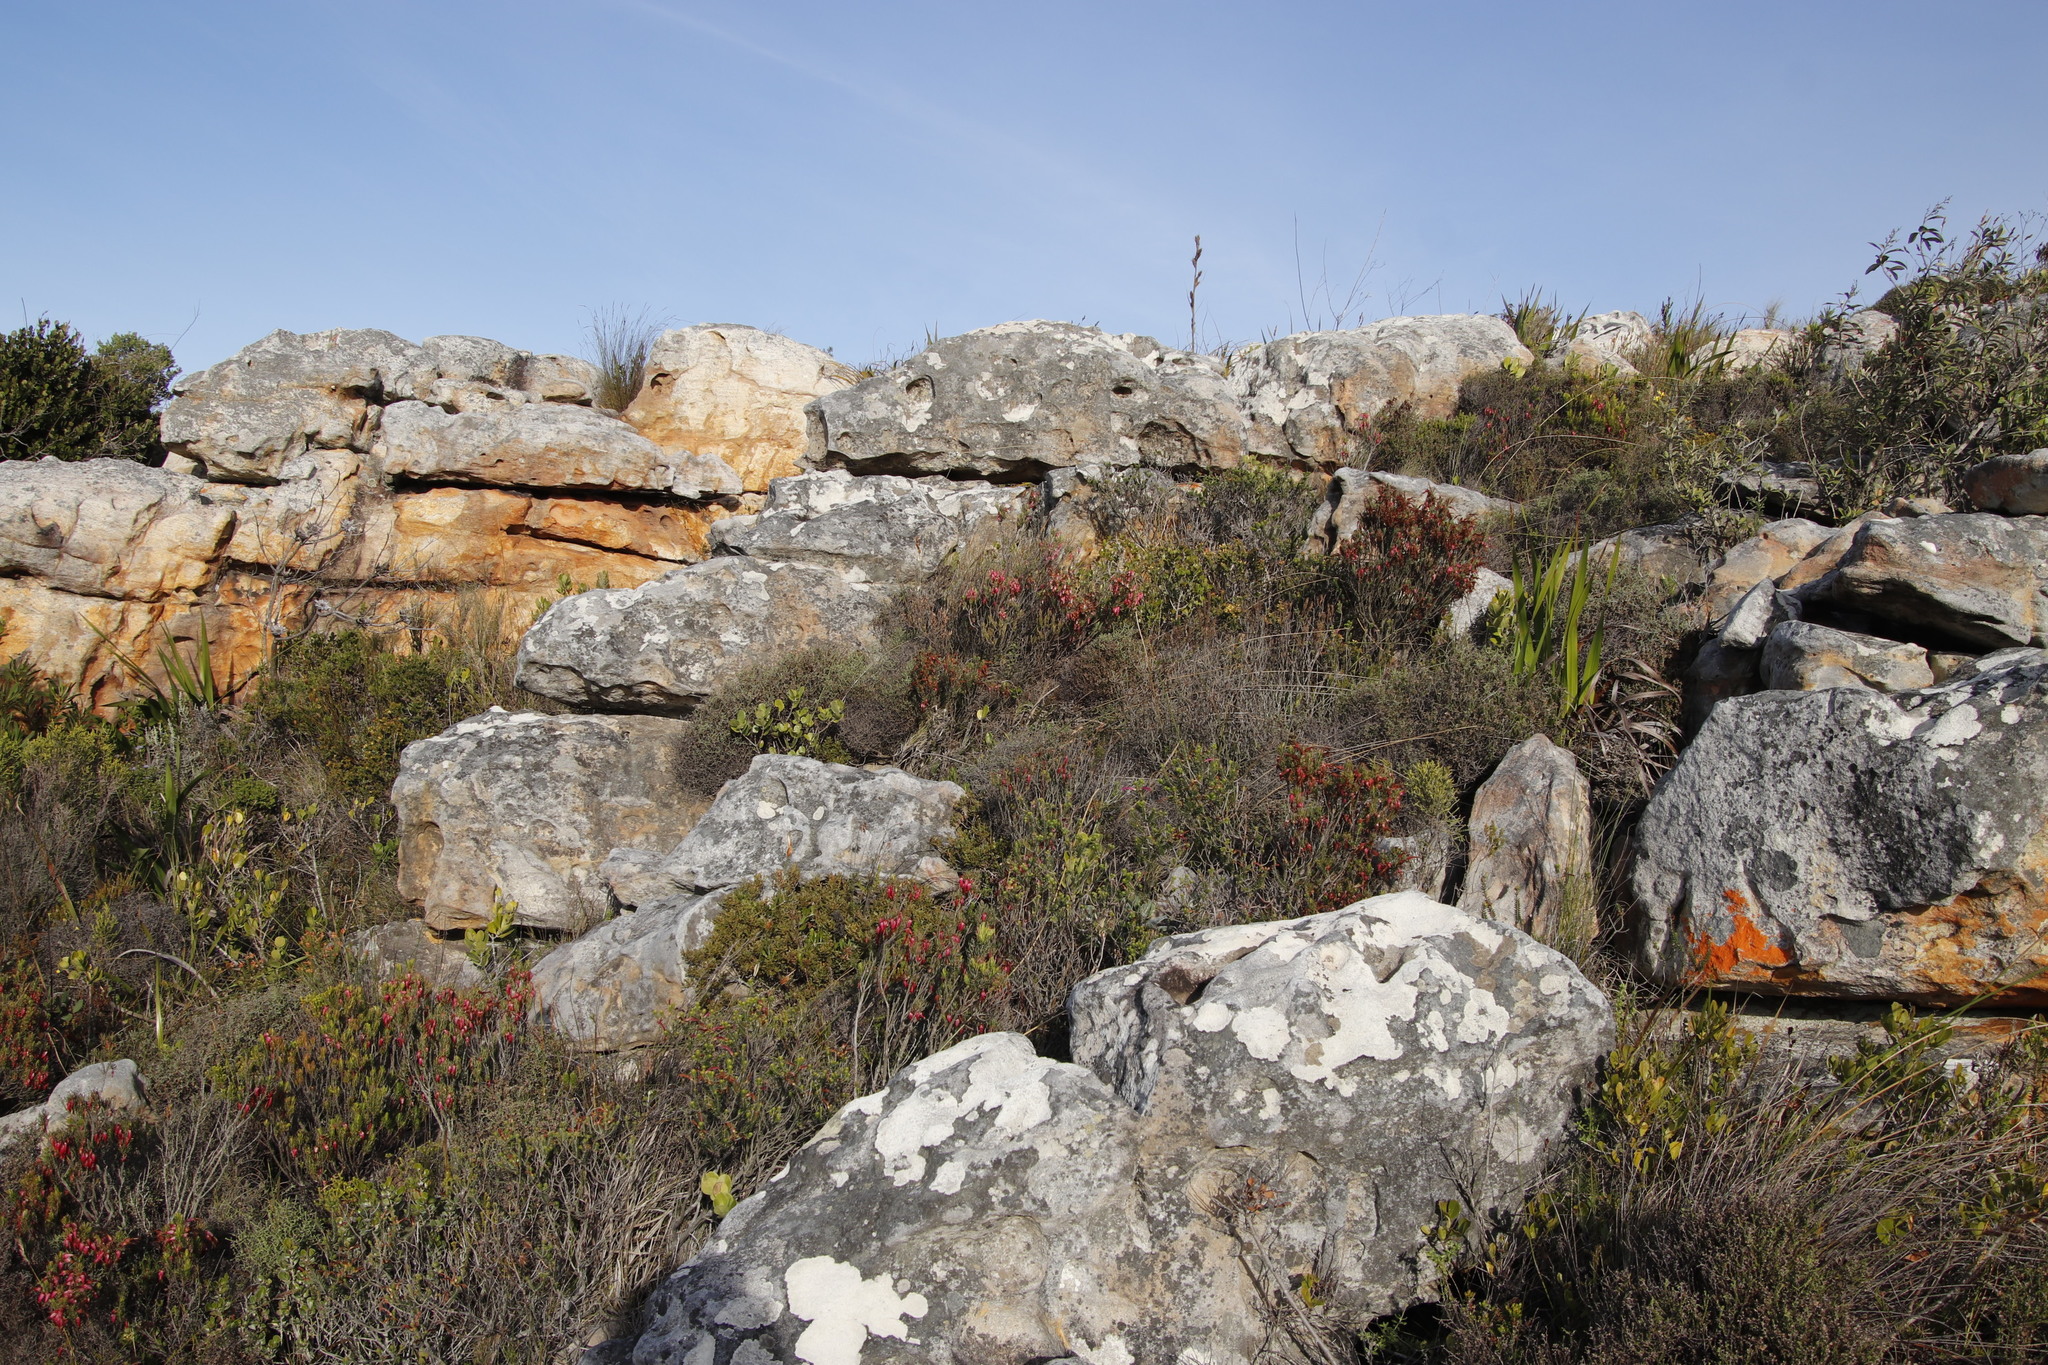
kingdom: Plantae
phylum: Tracheophyta
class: Magnoliopsida
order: Ericales
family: Ericaceae
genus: Erica
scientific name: Erica plukenetii
